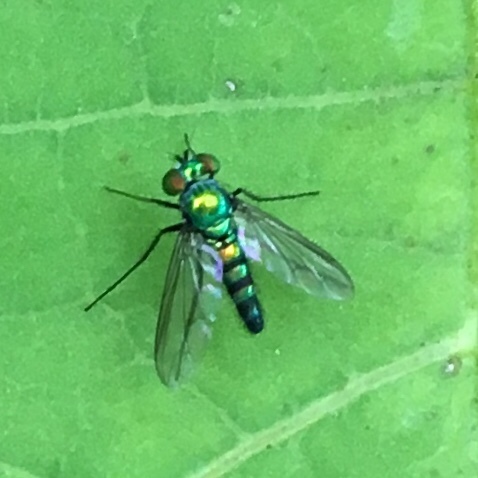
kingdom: Animalia
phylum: Arthropoda
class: Insecta
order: Diptera
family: Dolichopodidae
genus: Condylostylus
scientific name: Condylostylus longicornis
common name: Long-legged fly
